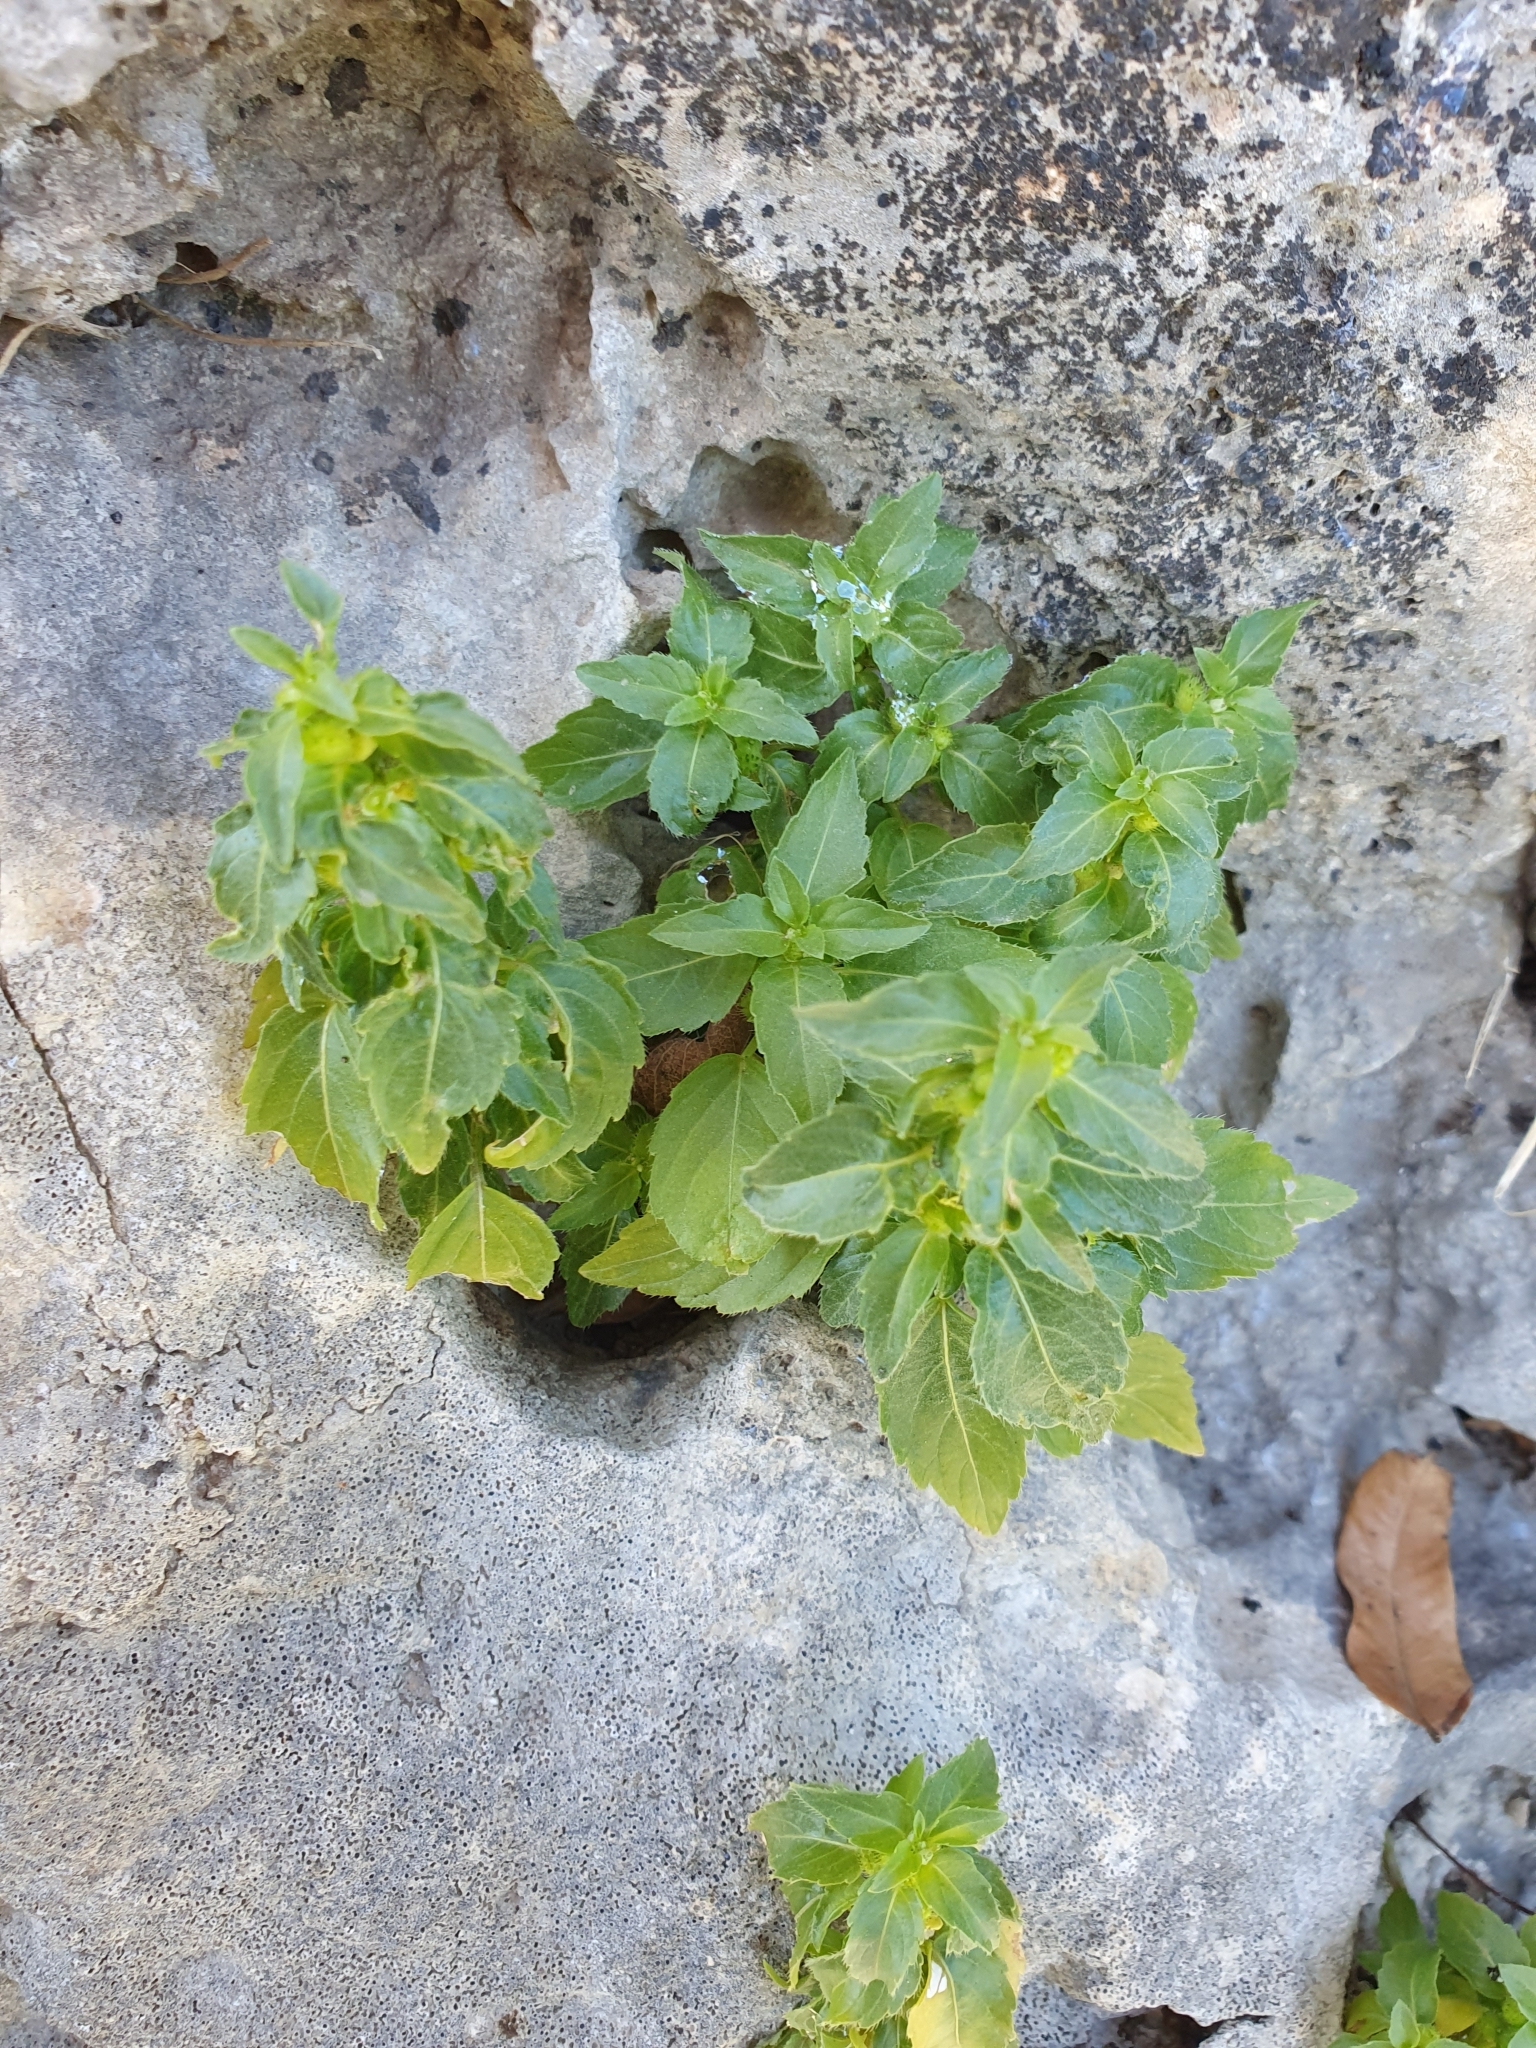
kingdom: Plantae
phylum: Tracheophyta
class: Magnoliopsida
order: Malpighiales
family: Euphorbiaceae
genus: Mercurialis
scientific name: Mercurialis annua
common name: Annual mercury
